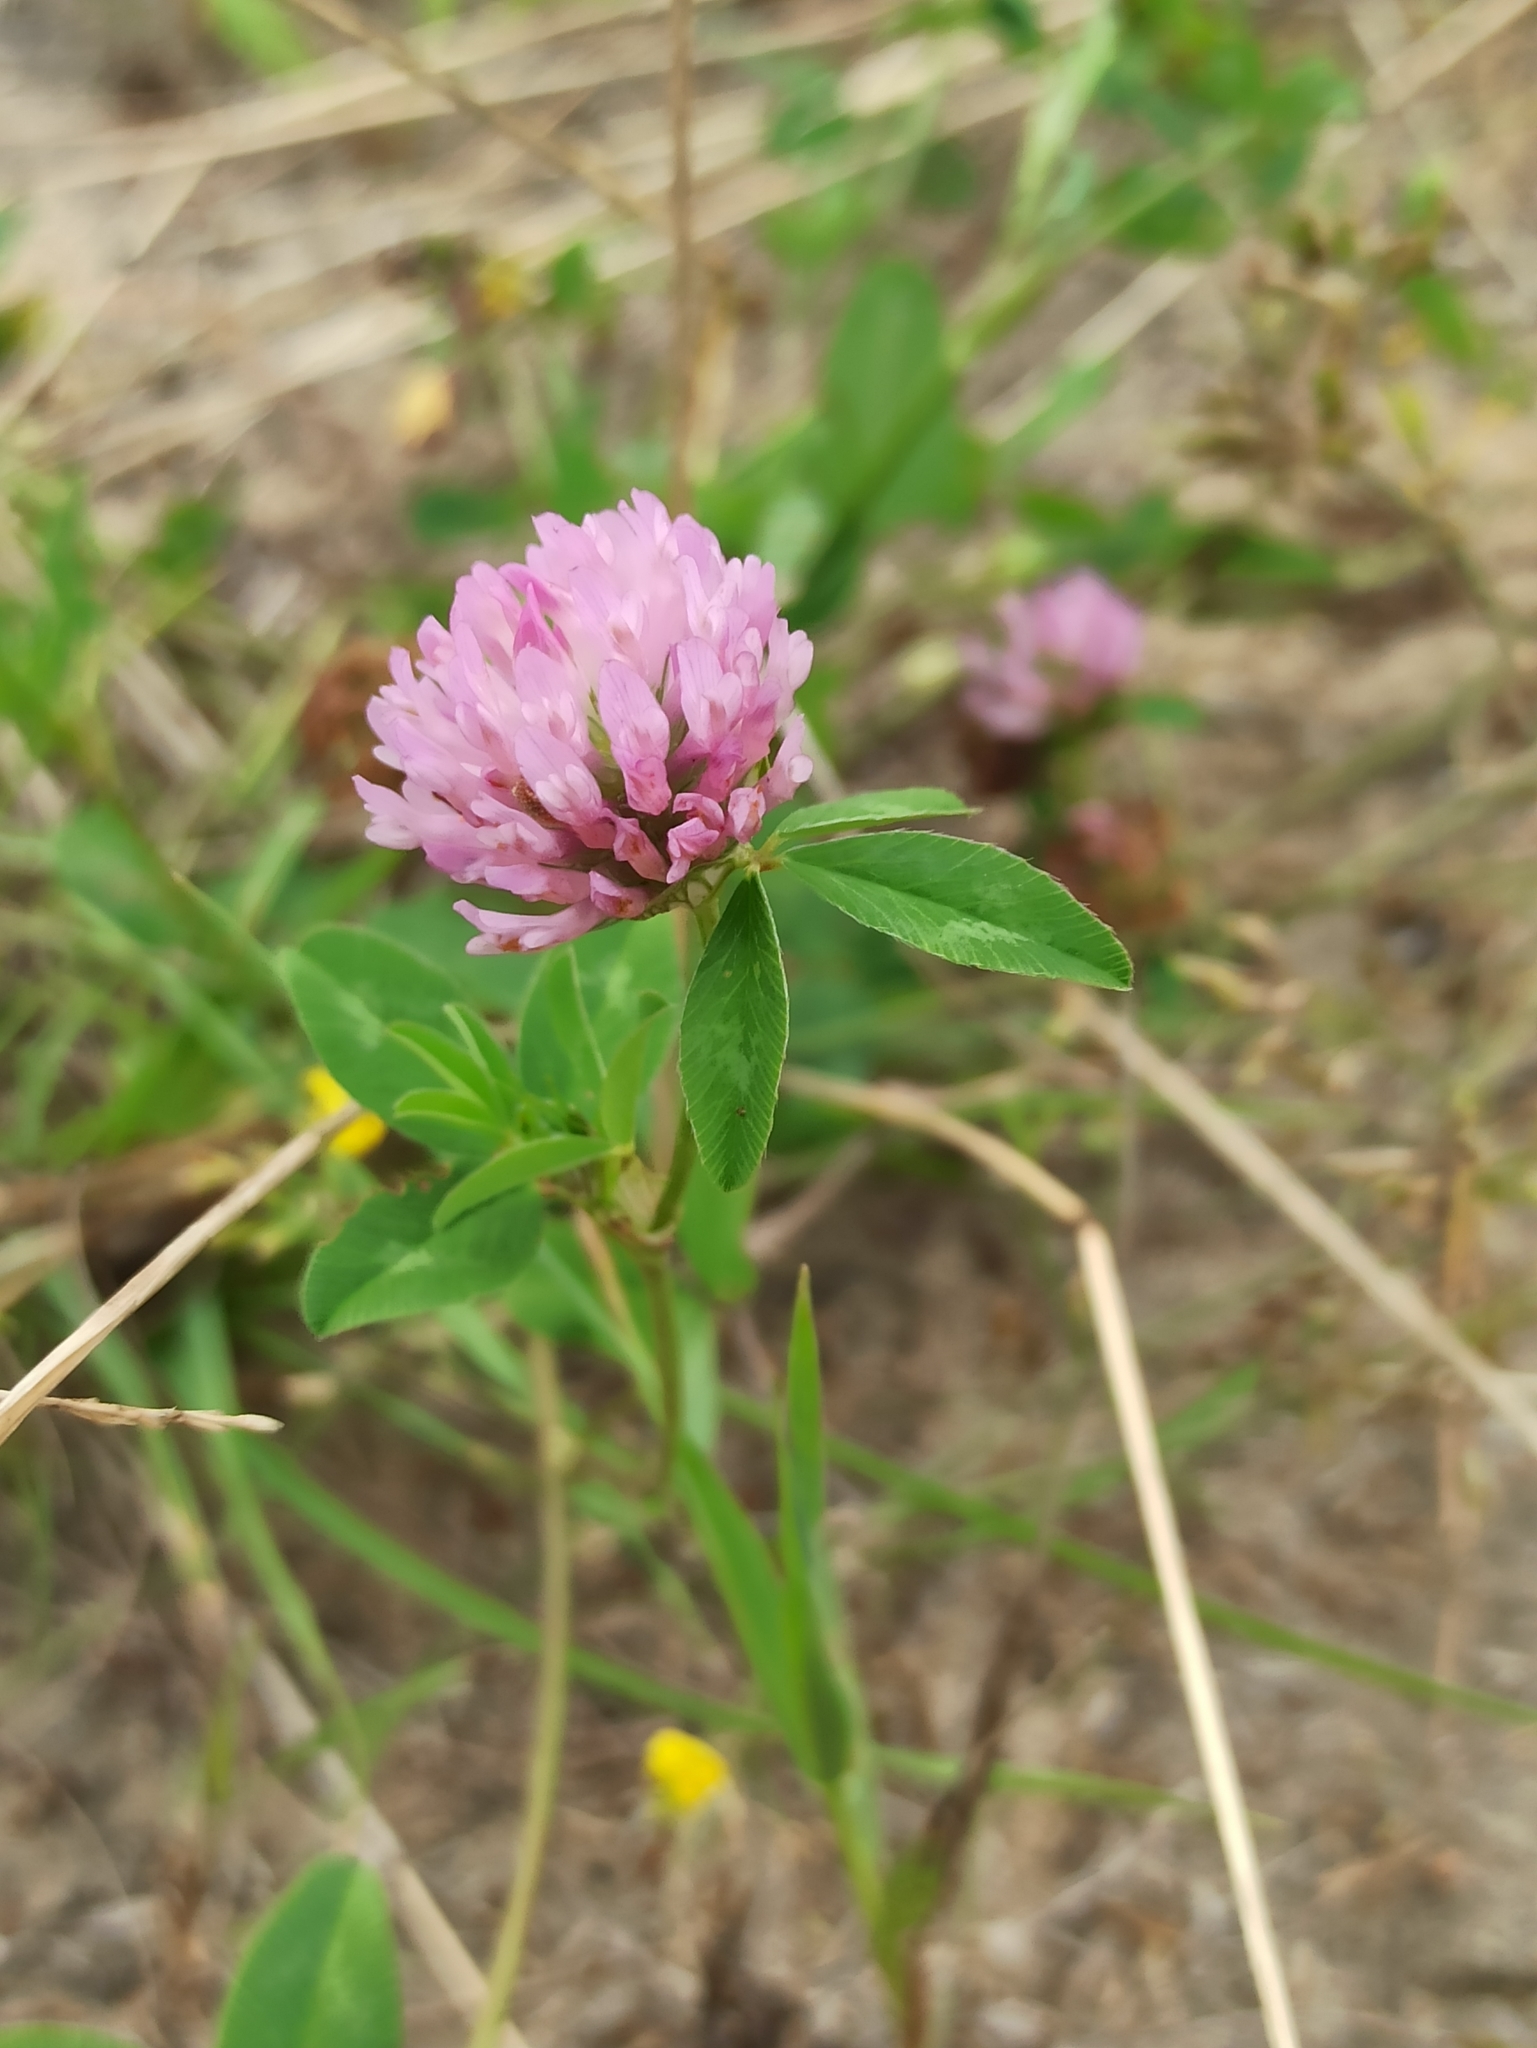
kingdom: Plantae
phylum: Tracheophyta
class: Magnoliopsida
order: Fabales
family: Fabaceae
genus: Trifolium
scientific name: Trifolium pratense
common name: Red clover
